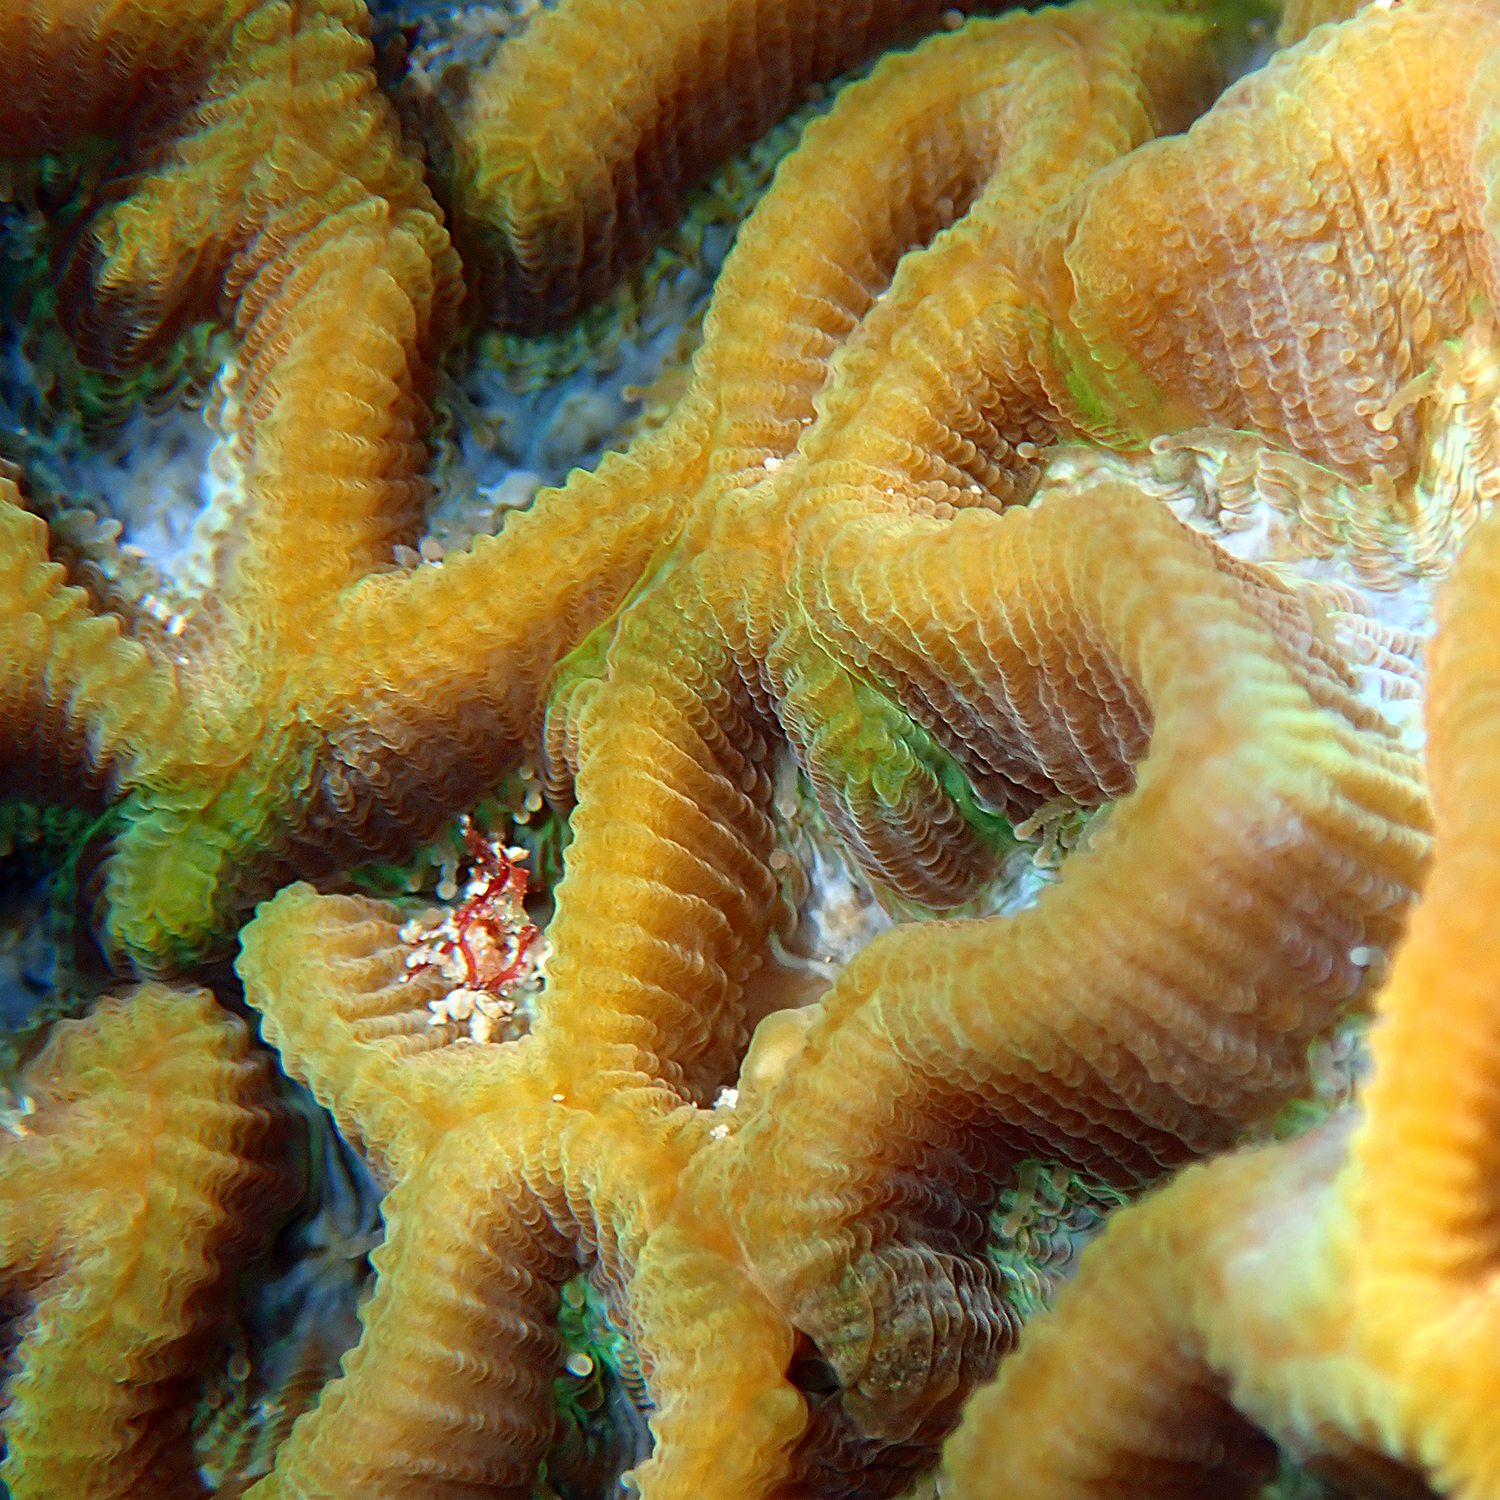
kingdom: Animalia
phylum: Cnidaria
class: Anthozoa
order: Scleractinia
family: Merulinidae
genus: Paragoniastrea
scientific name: Paragoniastrea australensis
